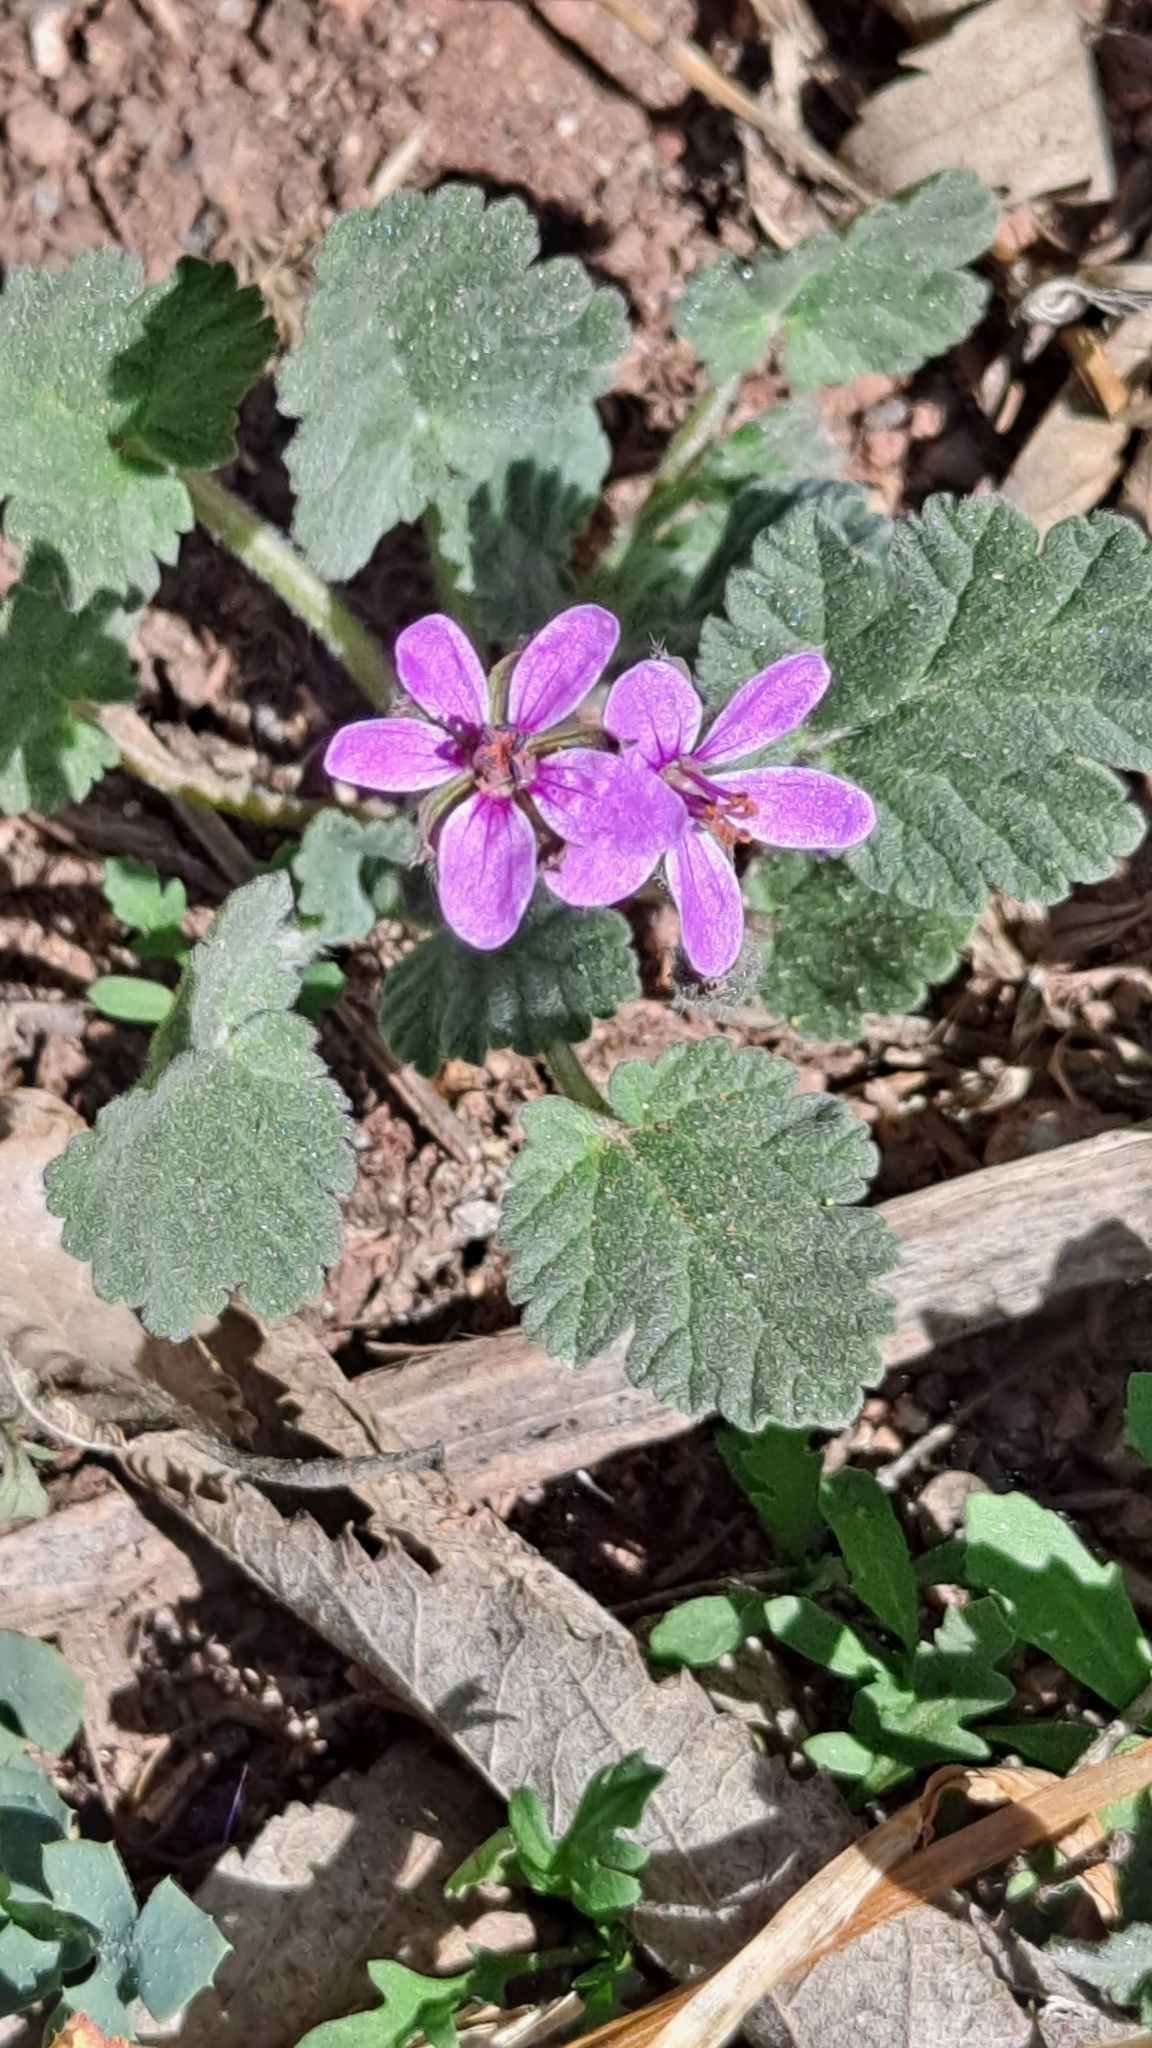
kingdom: Plantae
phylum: Tracheophyta
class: Magnoliopsida
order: Geraniales
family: Geraniaceae
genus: Erodium
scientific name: Erodium malacoides
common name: Soft stork's-bill
